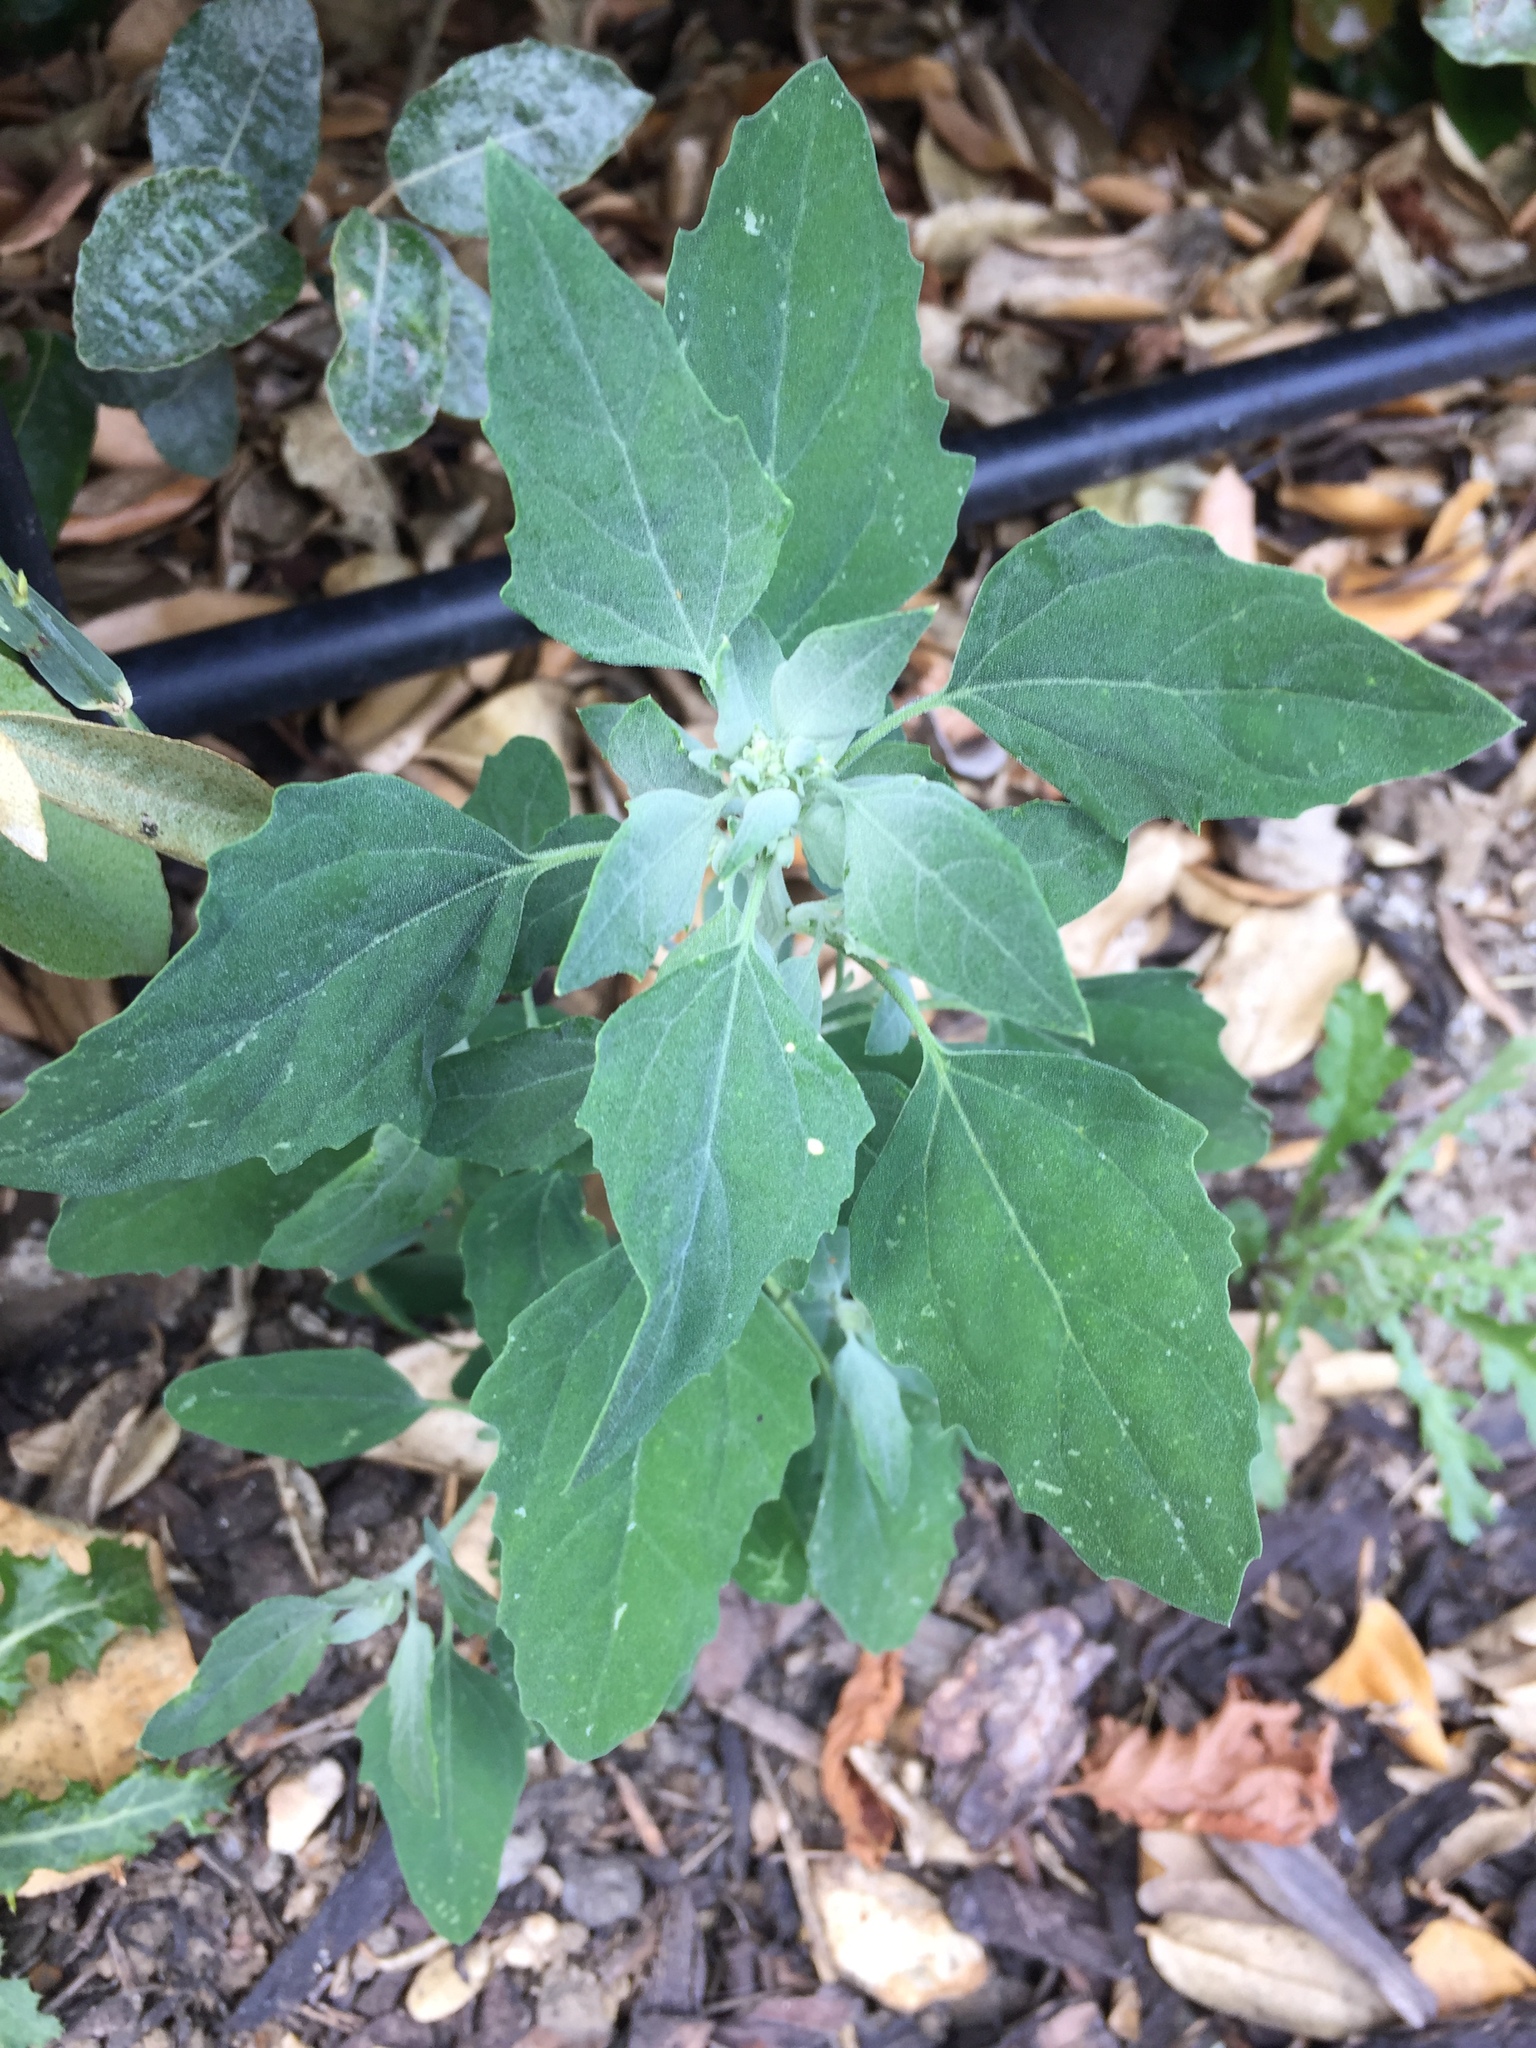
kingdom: Plantae
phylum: Tracheophyta
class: Magnoliopsida
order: Caryophyllales
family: Amaranthaceae
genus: Chenopodium
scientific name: Chenopodium album
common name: Fat-hen
